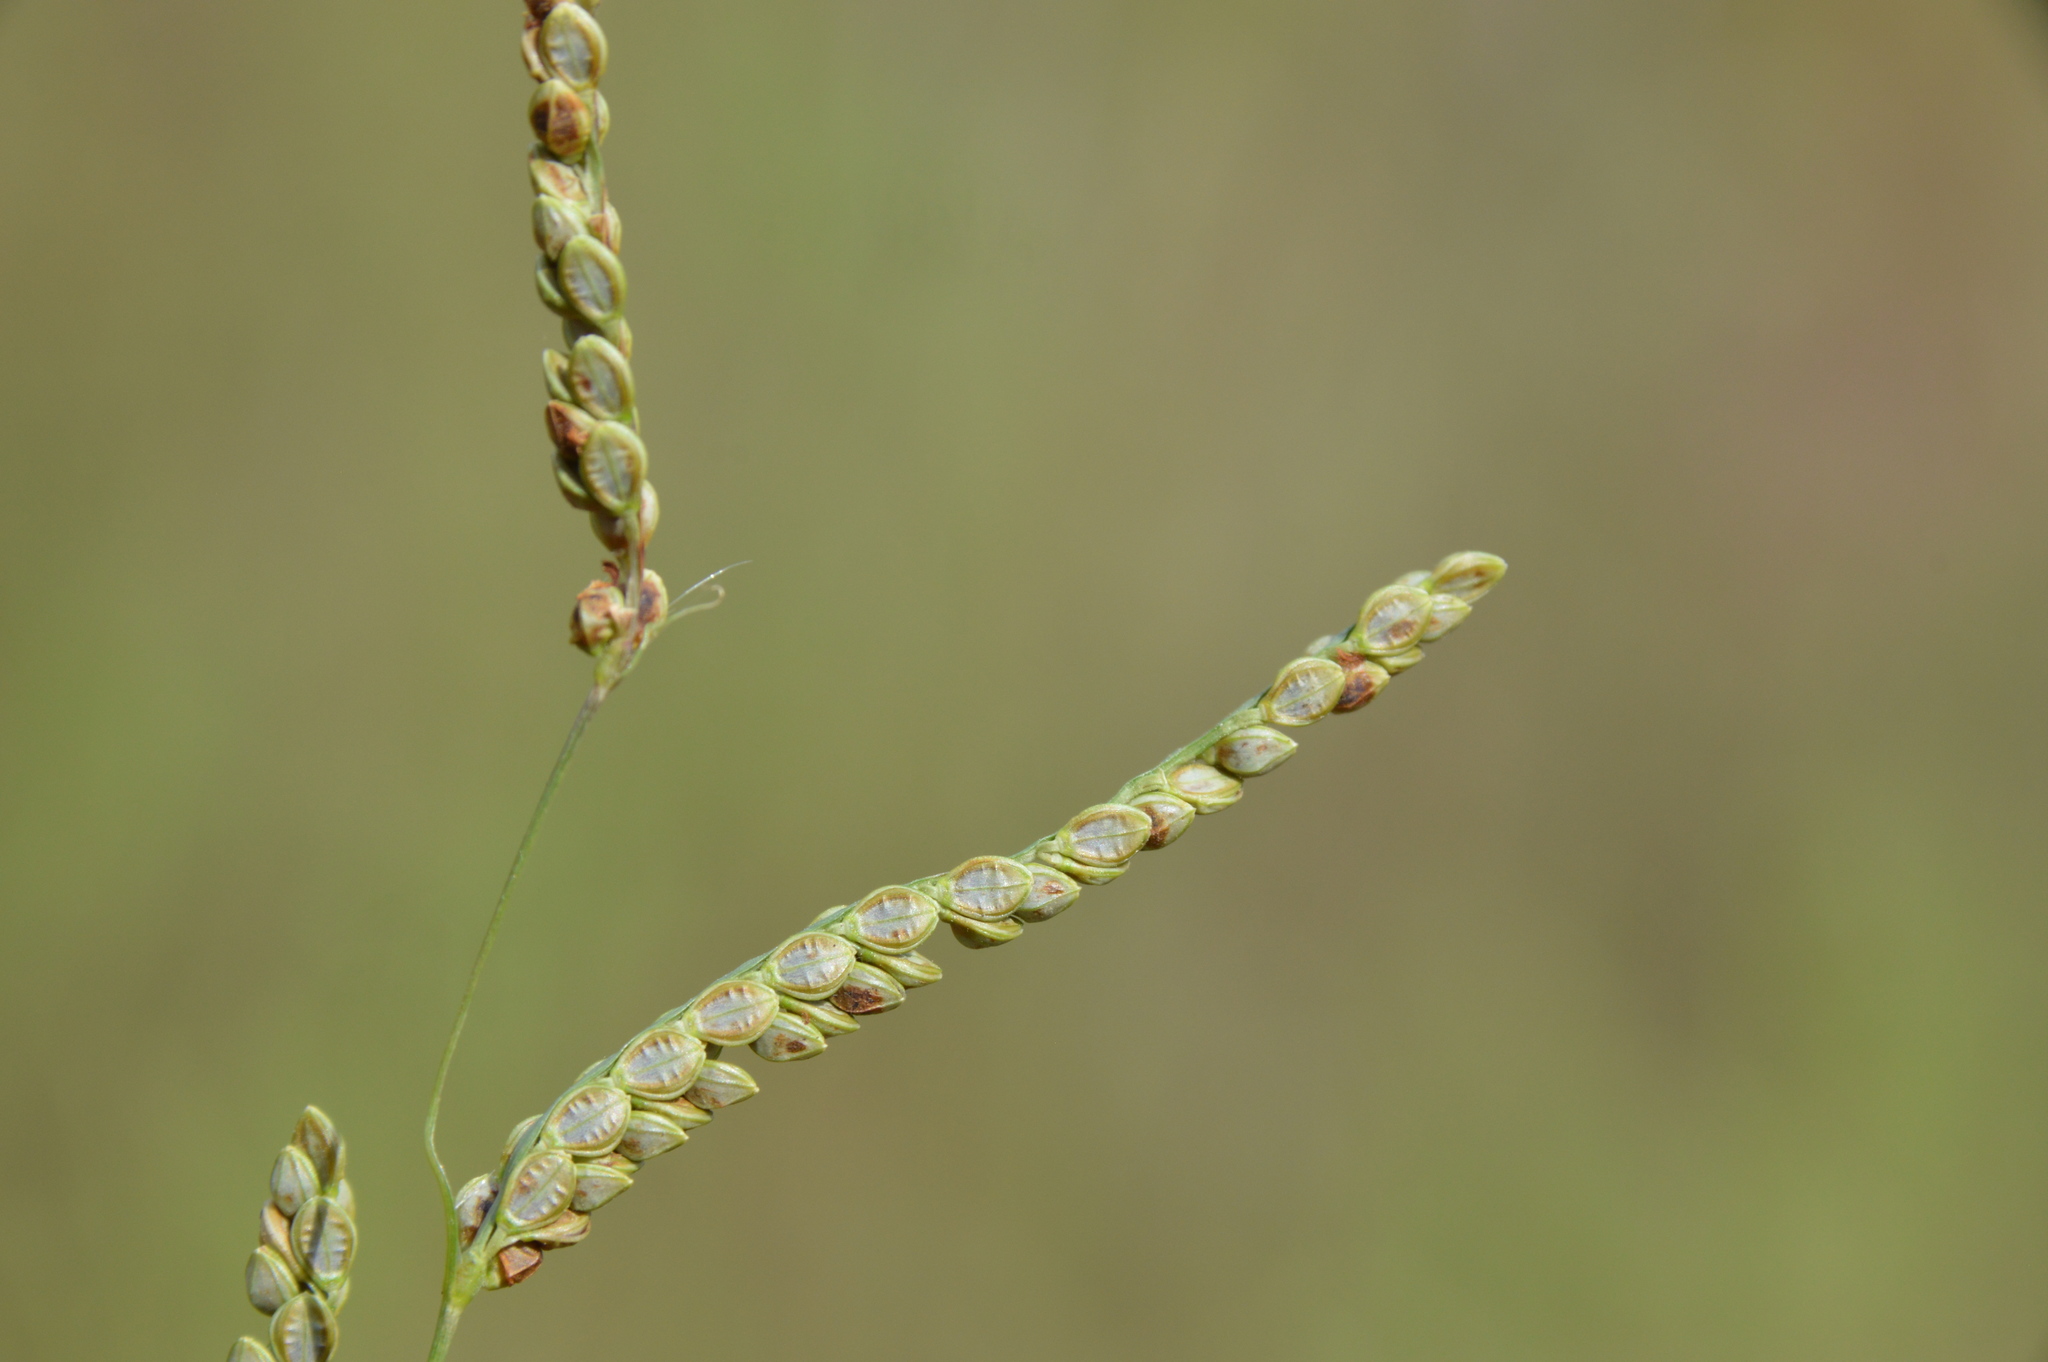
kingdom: Plantae
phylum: Tracheophyta
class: Liliopsida
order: Poales
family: Poaceae
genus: Paspalum
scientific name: Paspalum plicatulum
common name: Top paspalum
